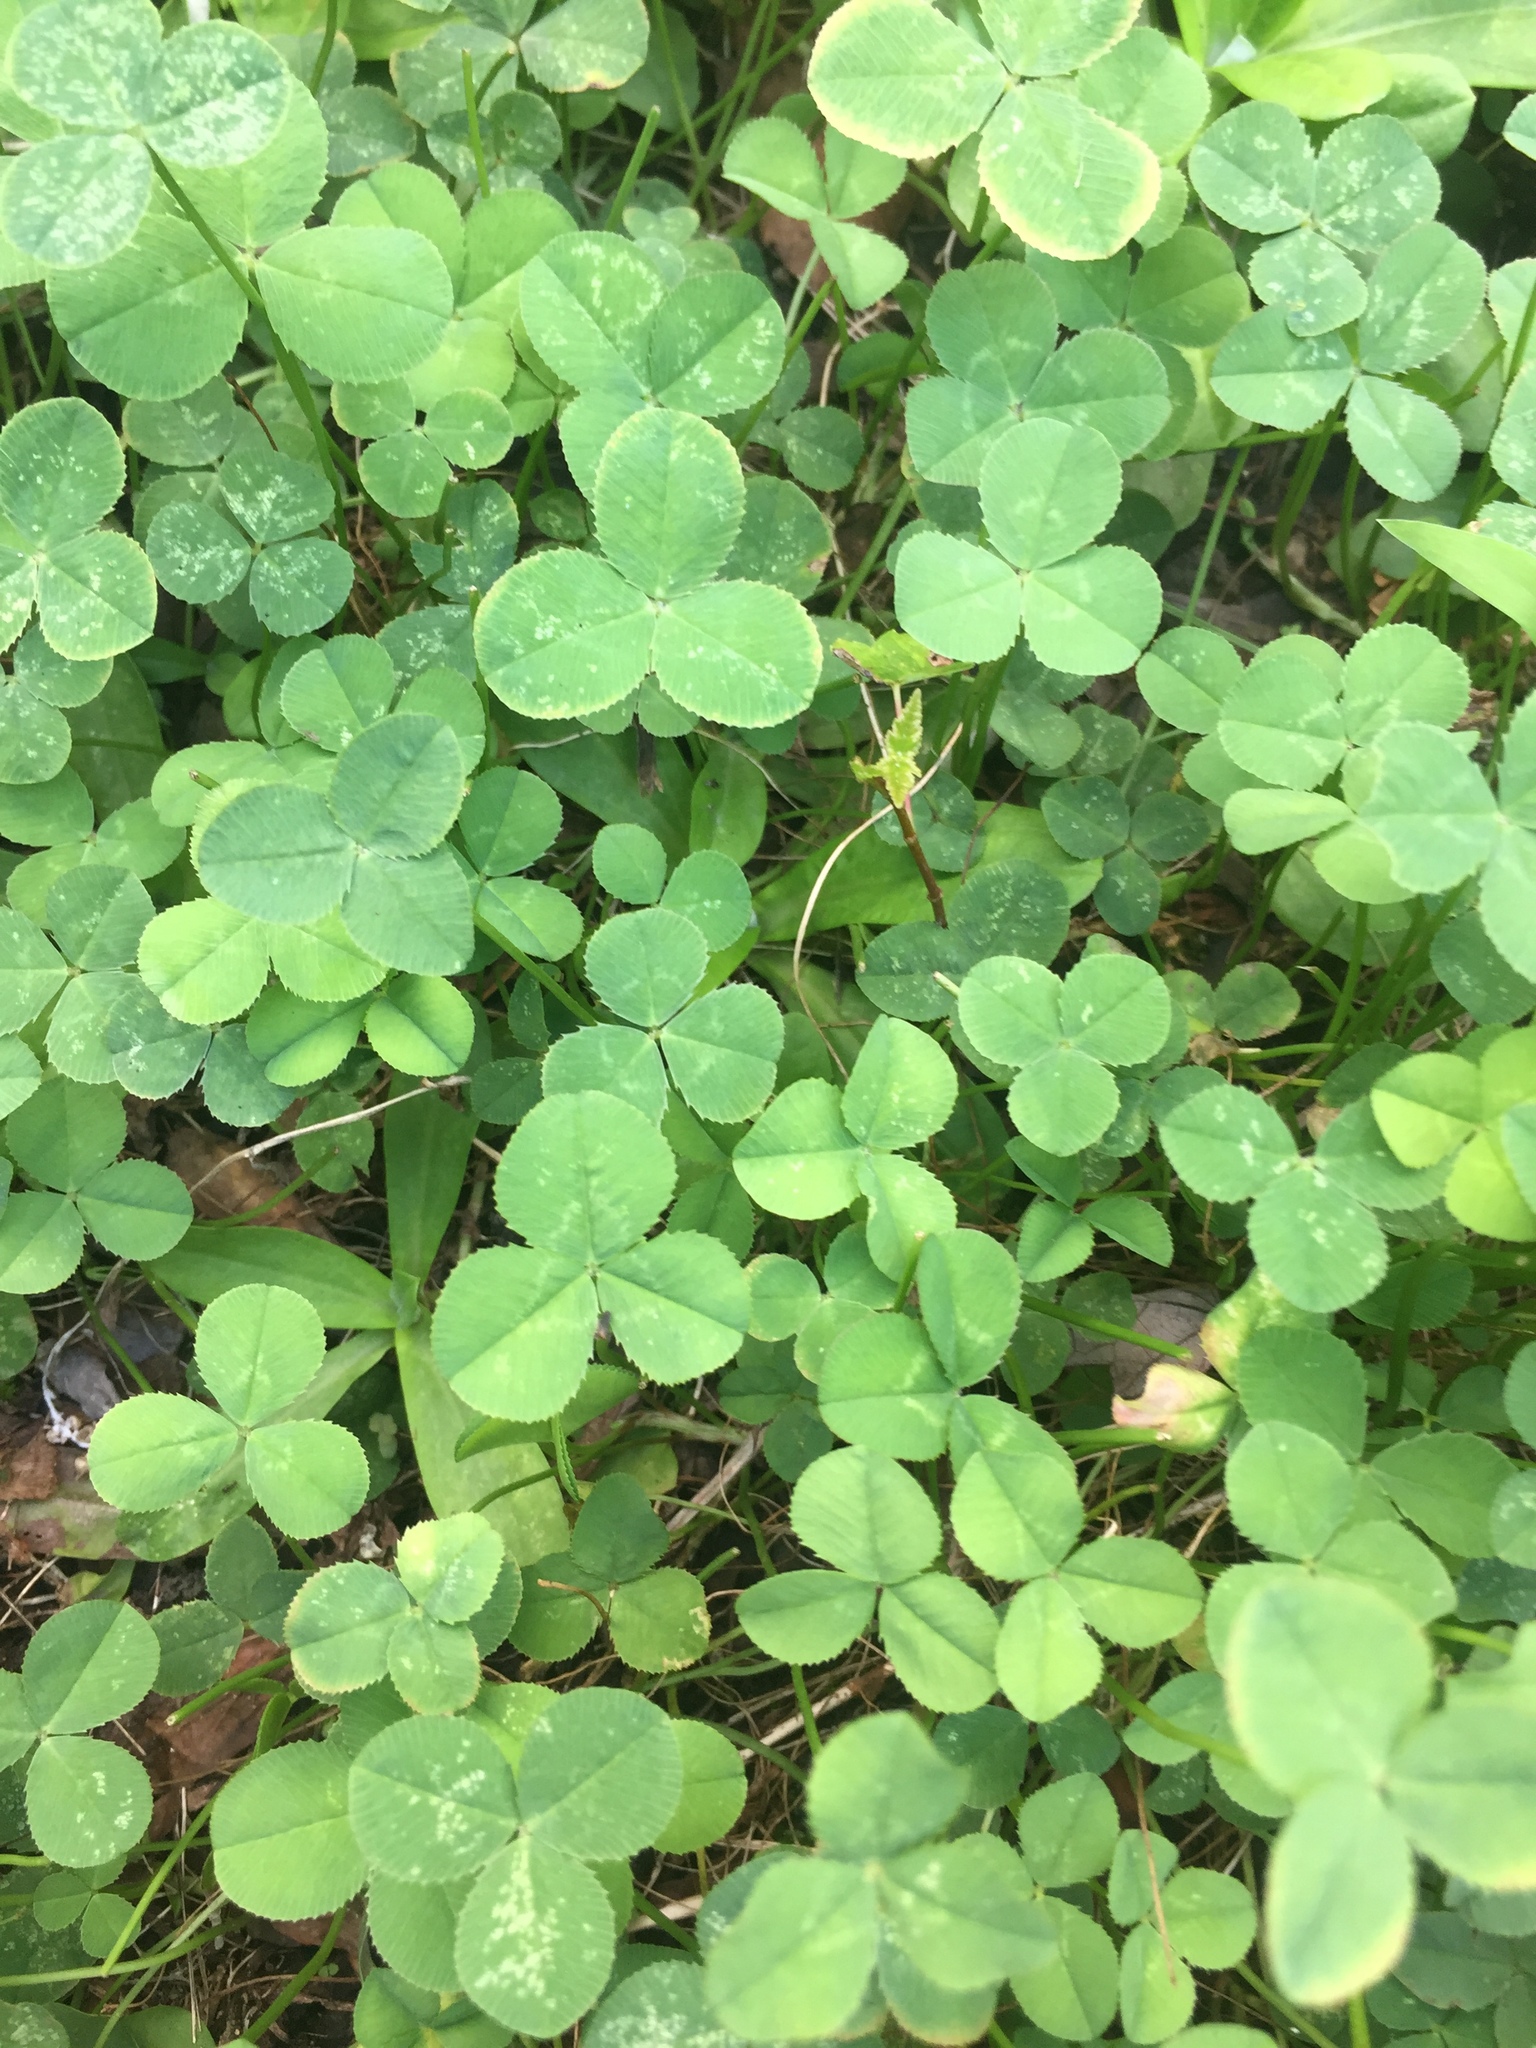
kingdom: Plantae
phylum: Tracheophyta
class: Magnoliopsida
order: Fabales
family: Fabaceae
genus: Trifolium
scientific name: Trifolium repens
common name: White clover
